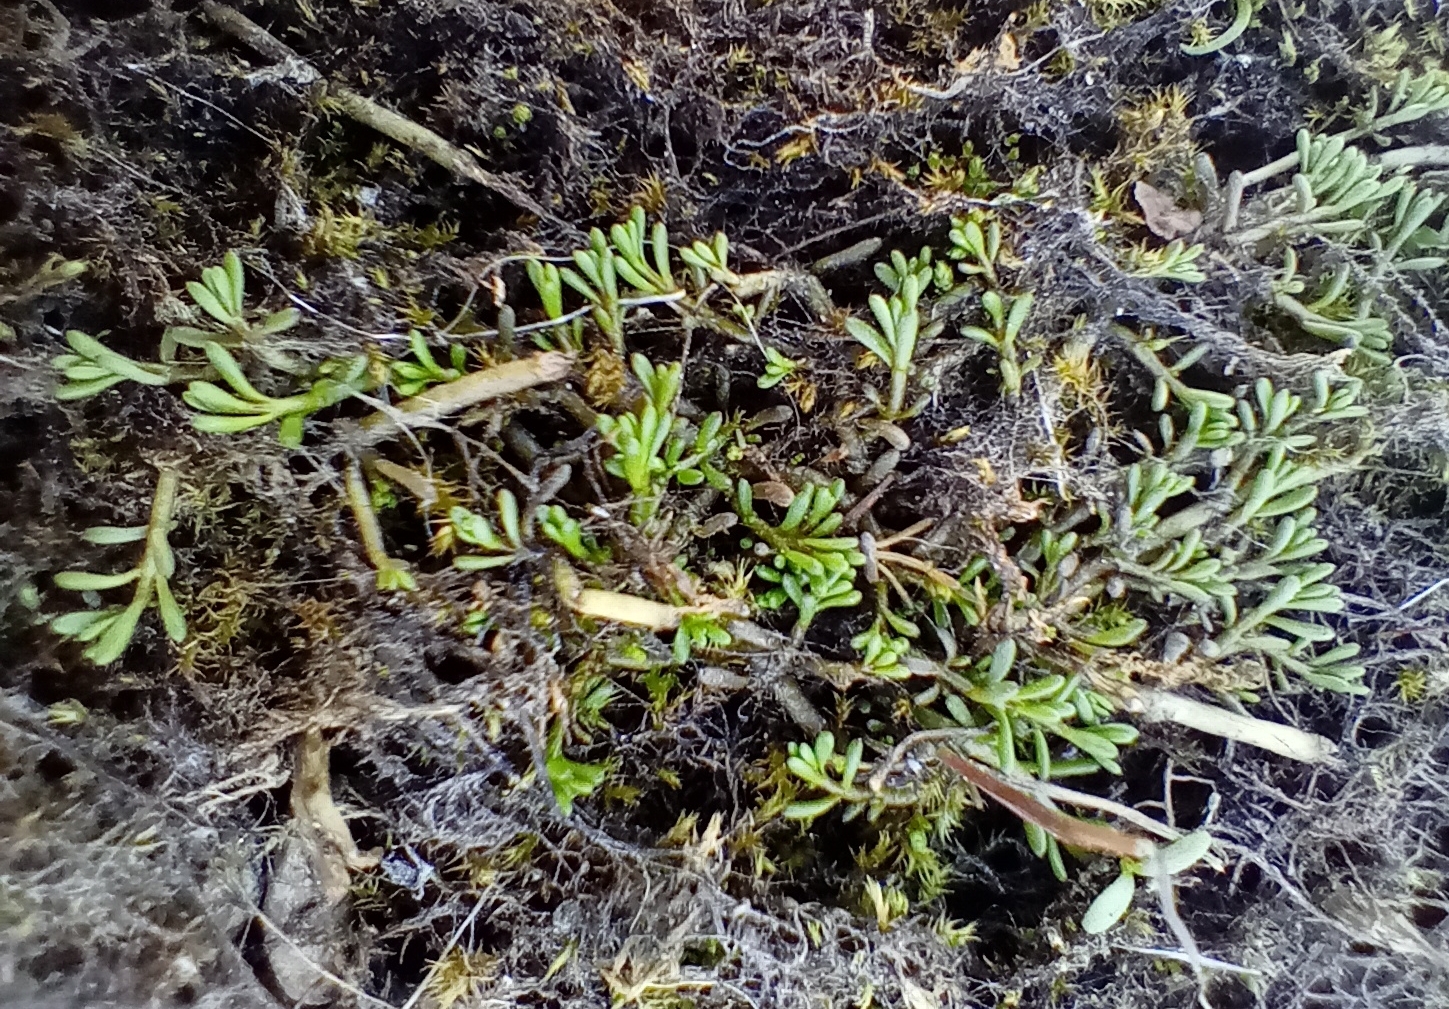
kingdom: Plantae
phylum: Tracheophyta
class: Magnoliopsida
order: Saxifragales
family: Haloragaceae
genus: Myriophyllum
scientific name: Myriophyllum pedunculatum
